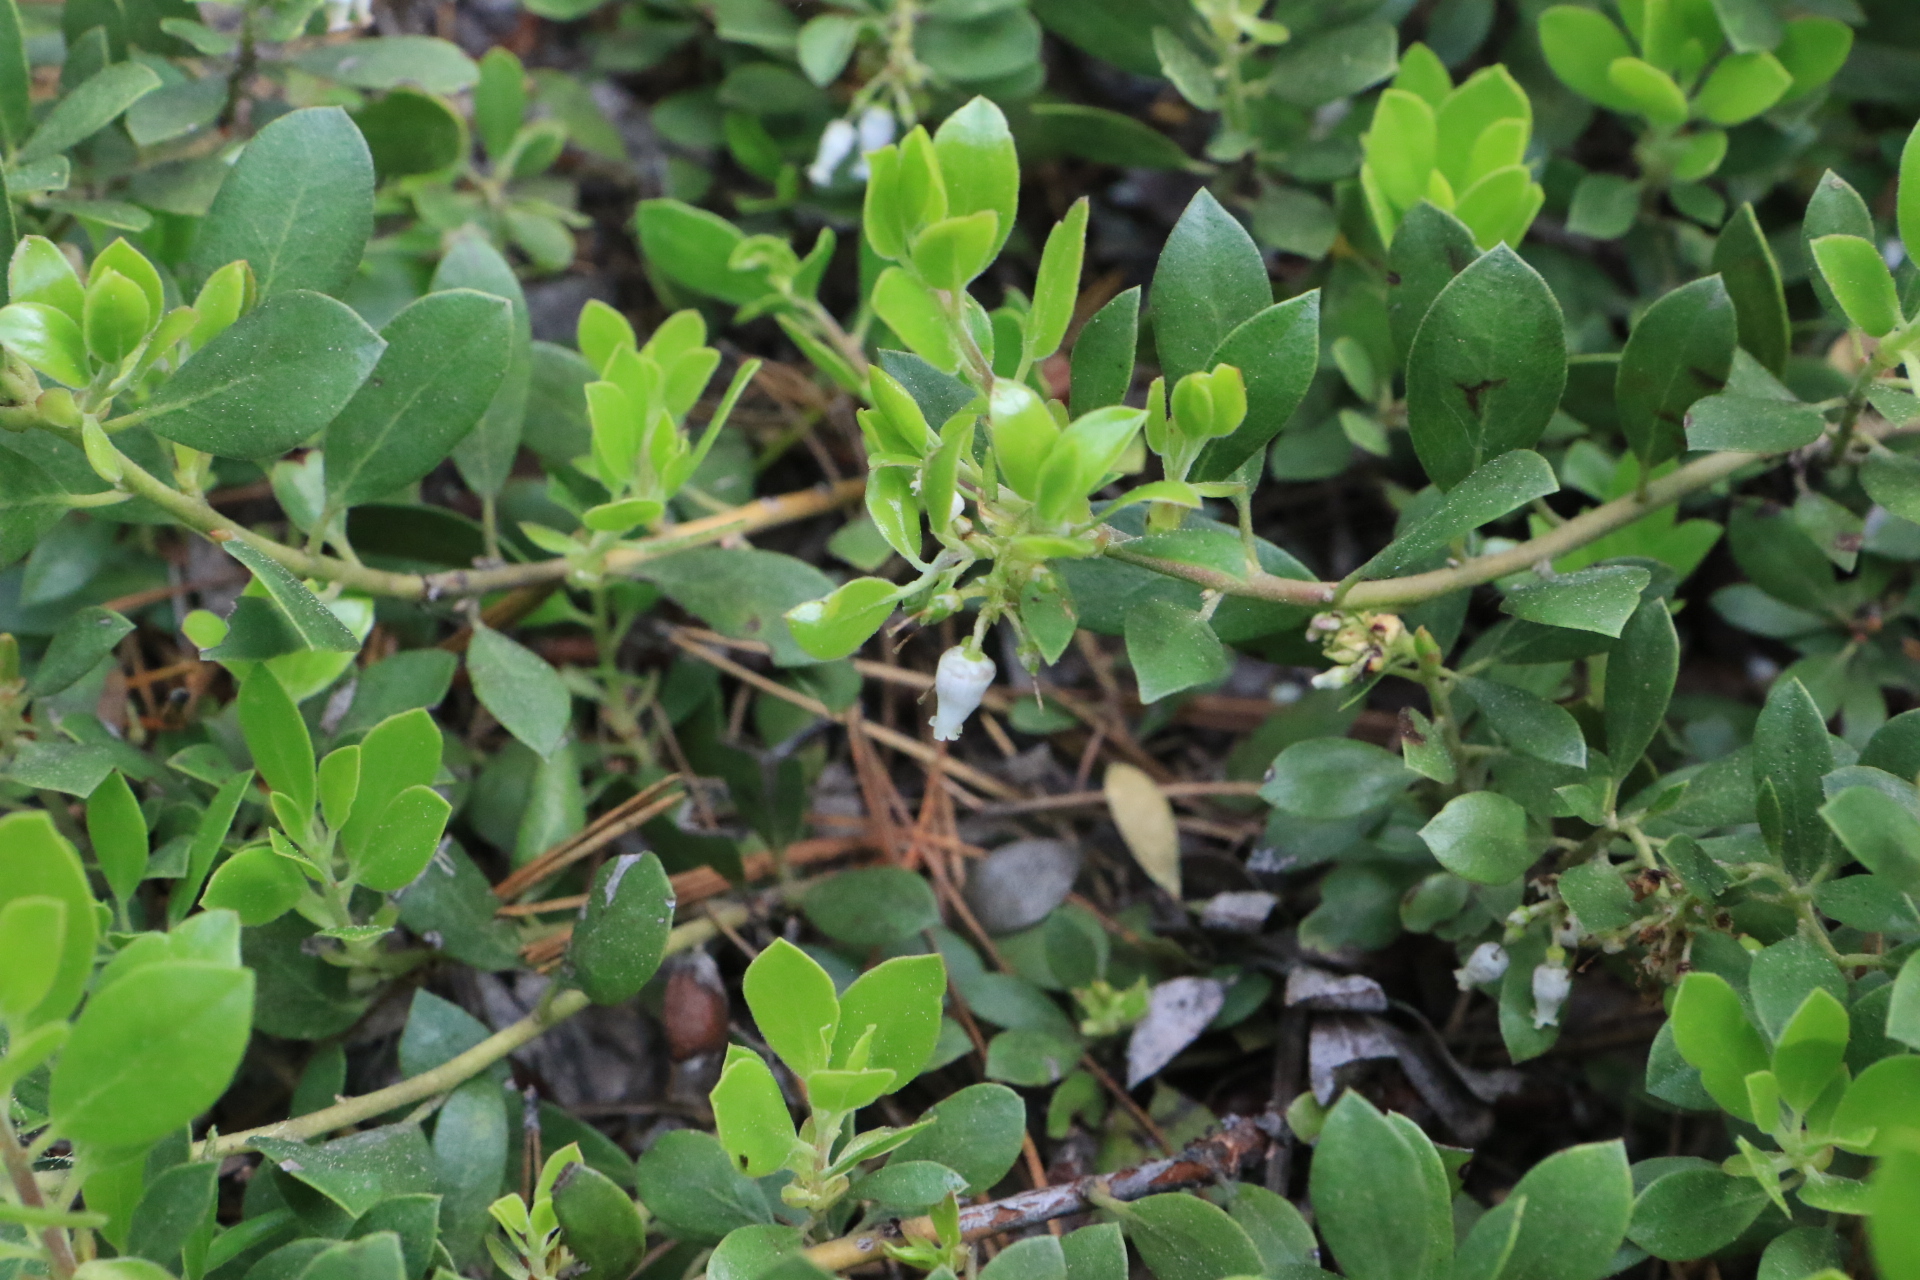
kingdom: Plantae
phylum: Tracheophyta
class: Magnoliopsida
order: Ericales
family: Ericaceae
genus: Arctostaphylos
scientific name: Arctostaphylos nevadensis
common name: Pinemat manzanita
